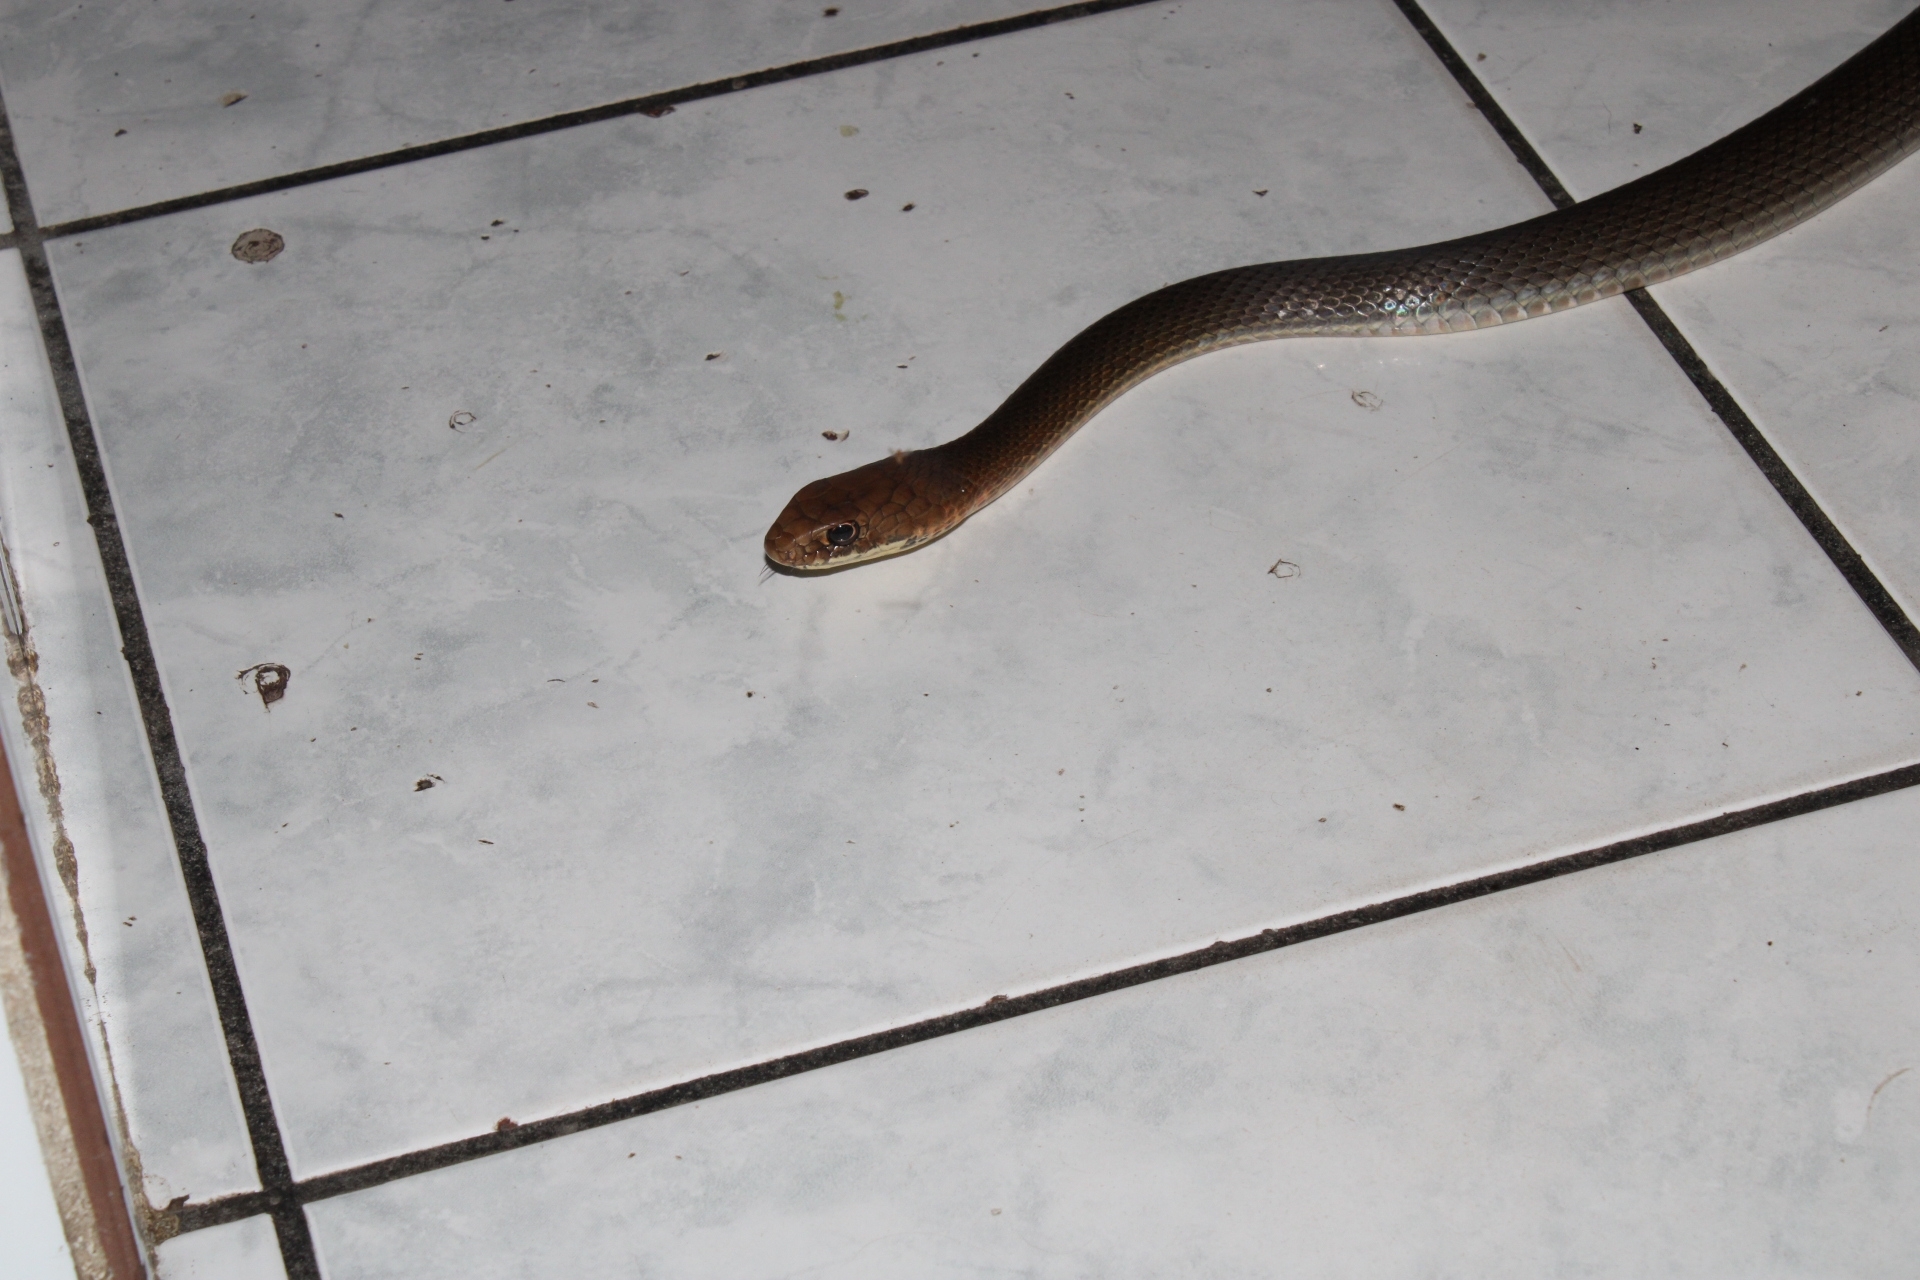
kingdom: Animalia
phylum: Chordata
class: Squamata
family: Colubridae
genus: Masticophis
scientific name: Masticophis mentovarius
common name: Neotropical whip snake
